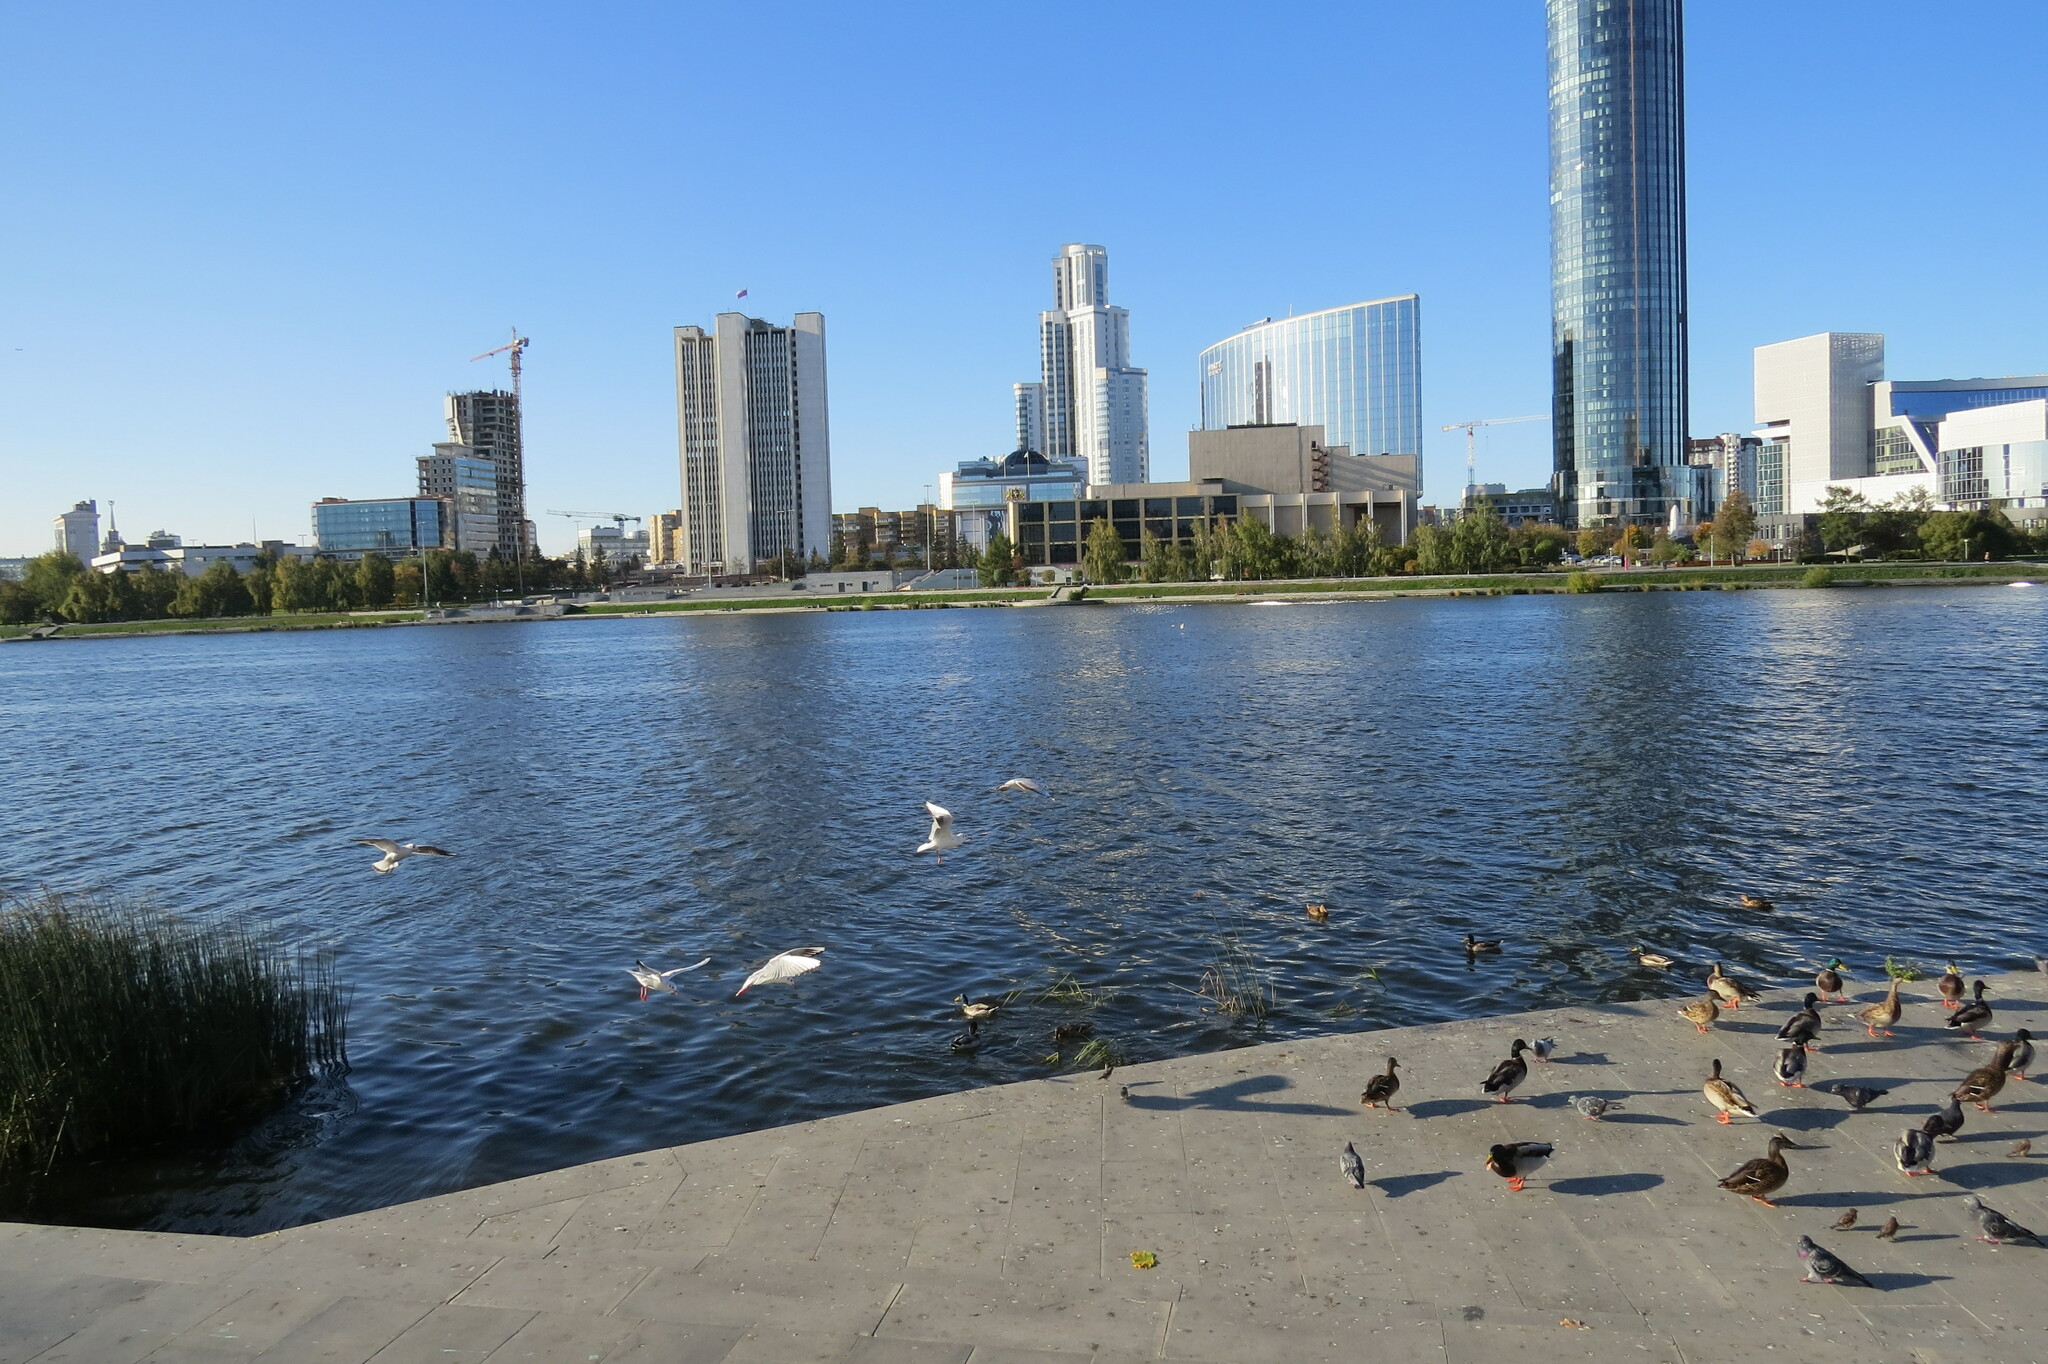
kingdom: Animalia
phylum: Chordata
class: Aves
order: Anseriformes
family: Anatidae
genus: Anas
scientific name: Anas platyrhynchos
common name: Mallard
